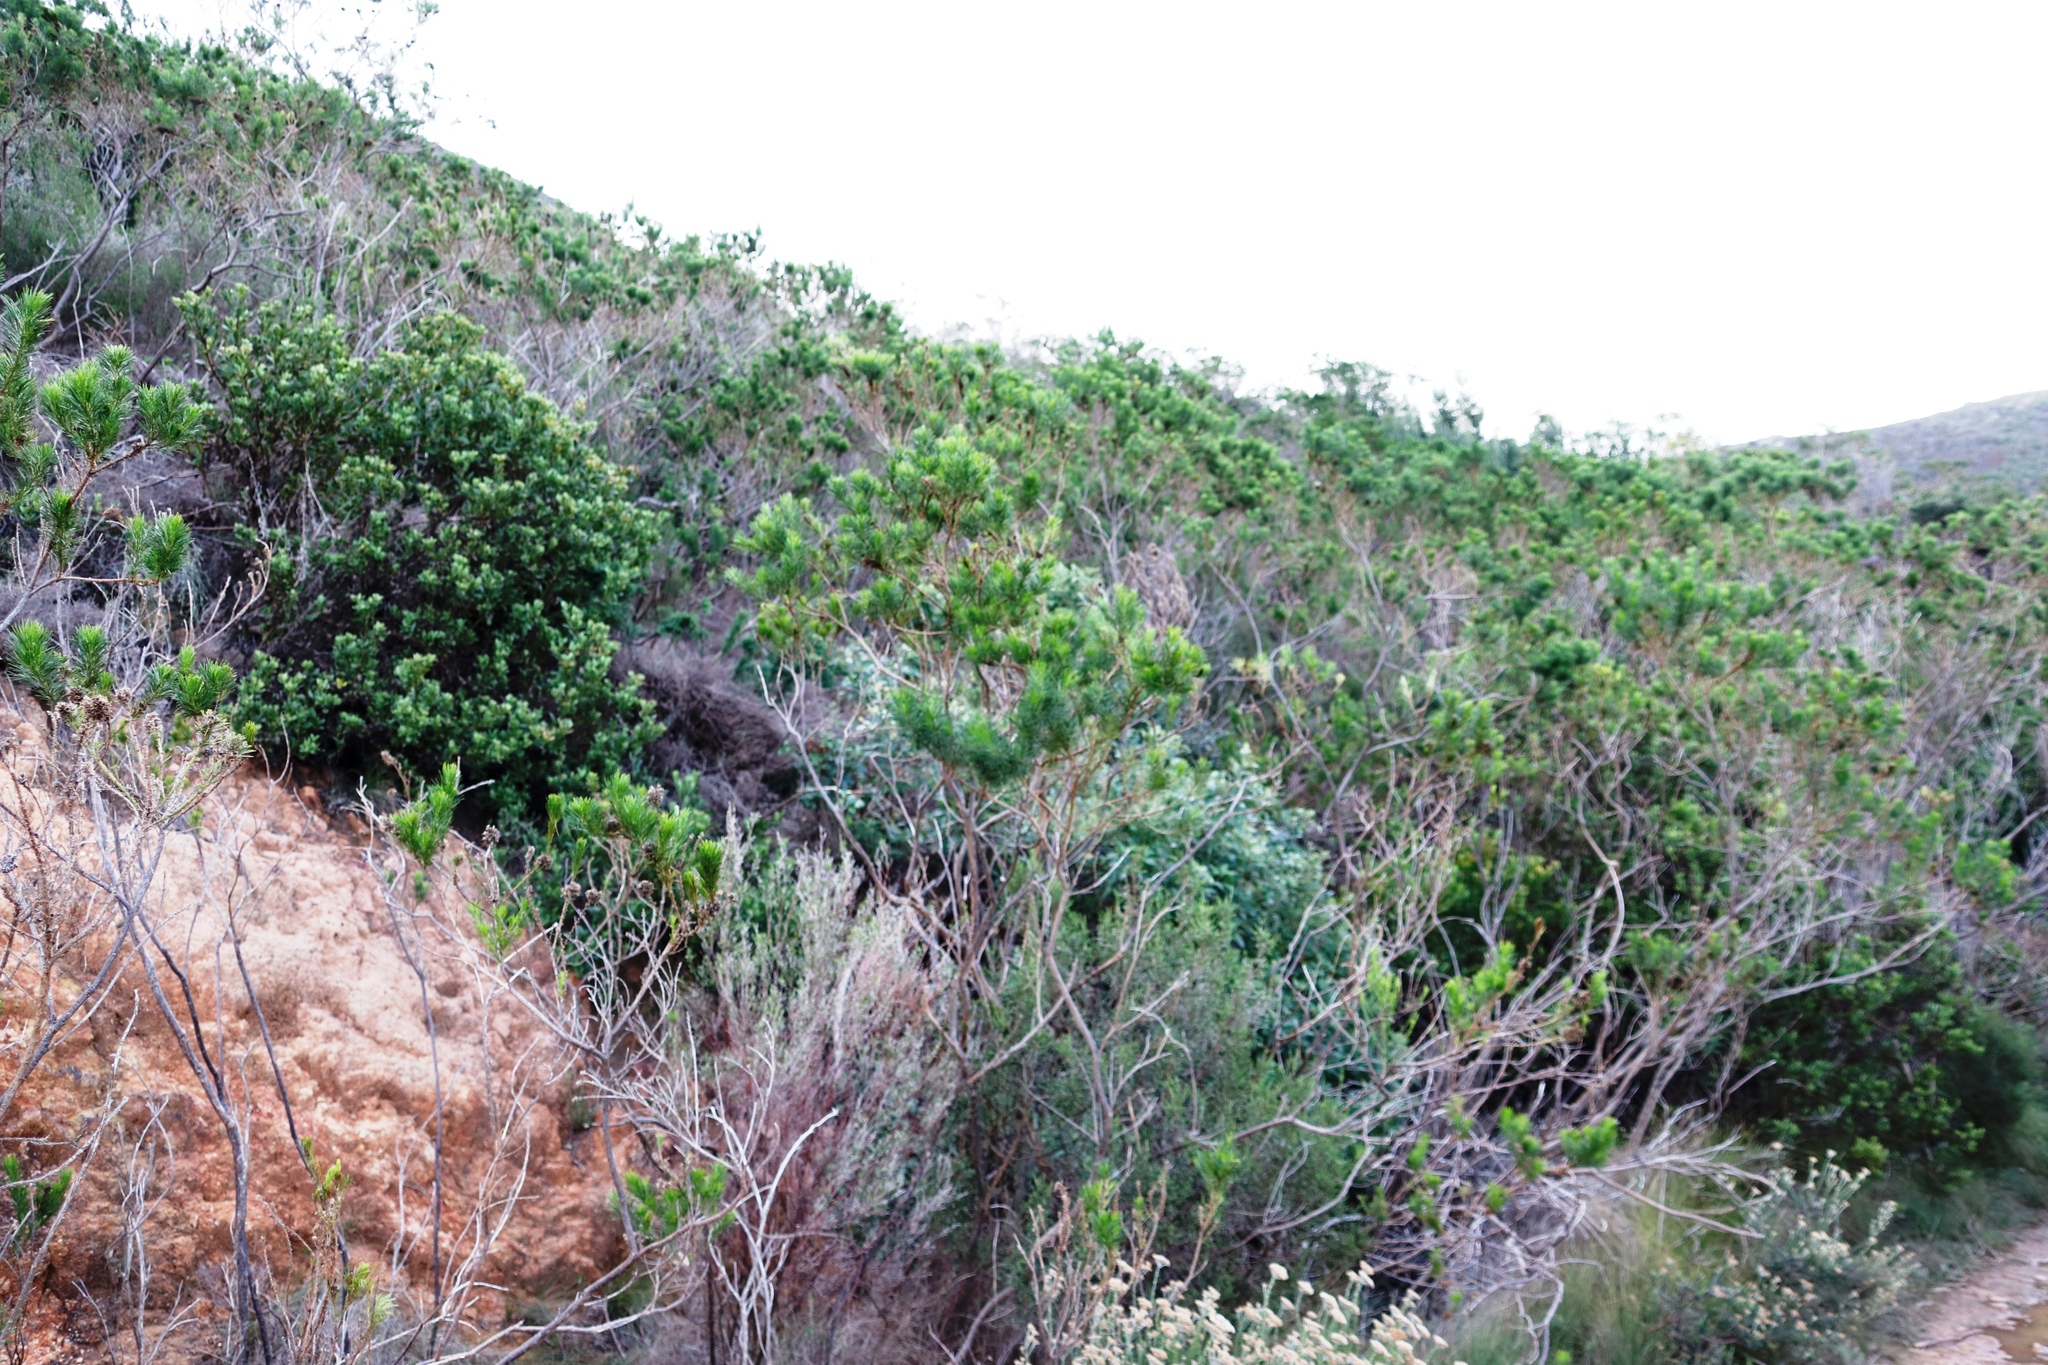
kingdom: Plantae
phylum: Tracheophyta
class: Magnoliopsida
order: Fabales
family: Fabaceae
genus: Psoralea
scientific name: Psoralea pinnata
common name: African scurfpea
